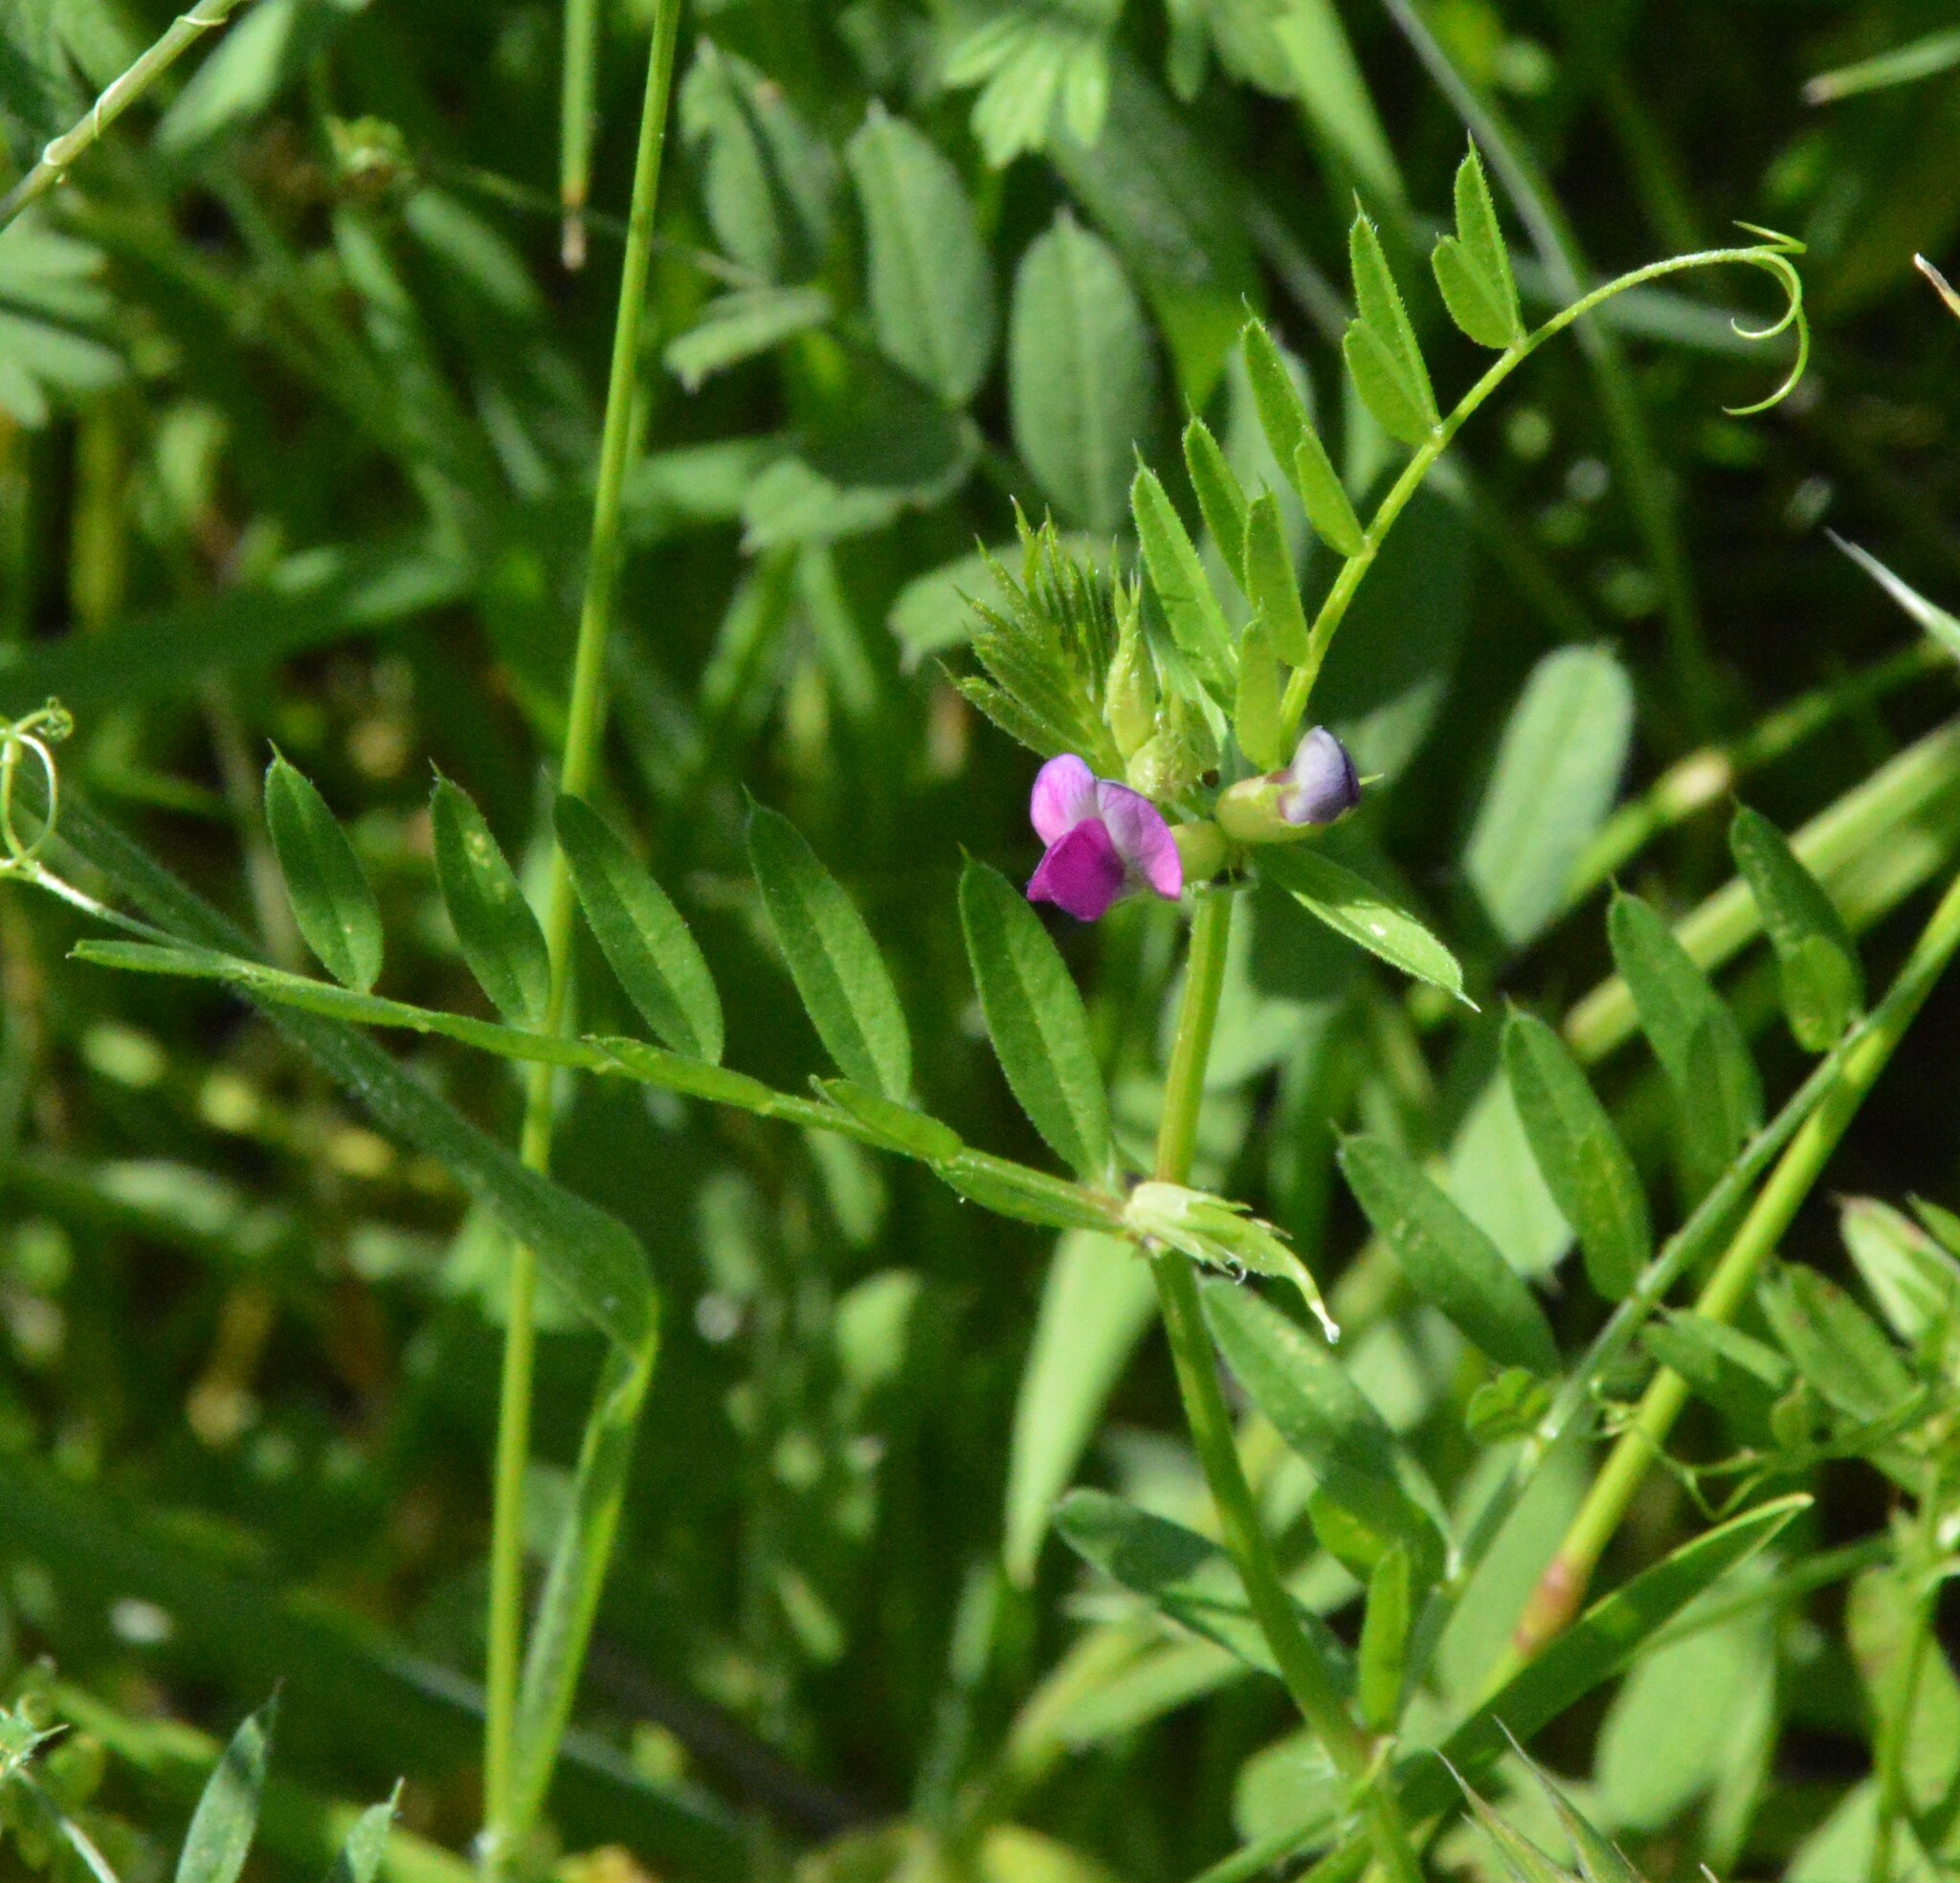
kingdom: Plantae
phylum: Tracheophyta
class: Magnoliopsida
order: Fabales
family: Fabaceae
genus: Vicia
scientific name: Vicia sativa
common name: Garden vetch
